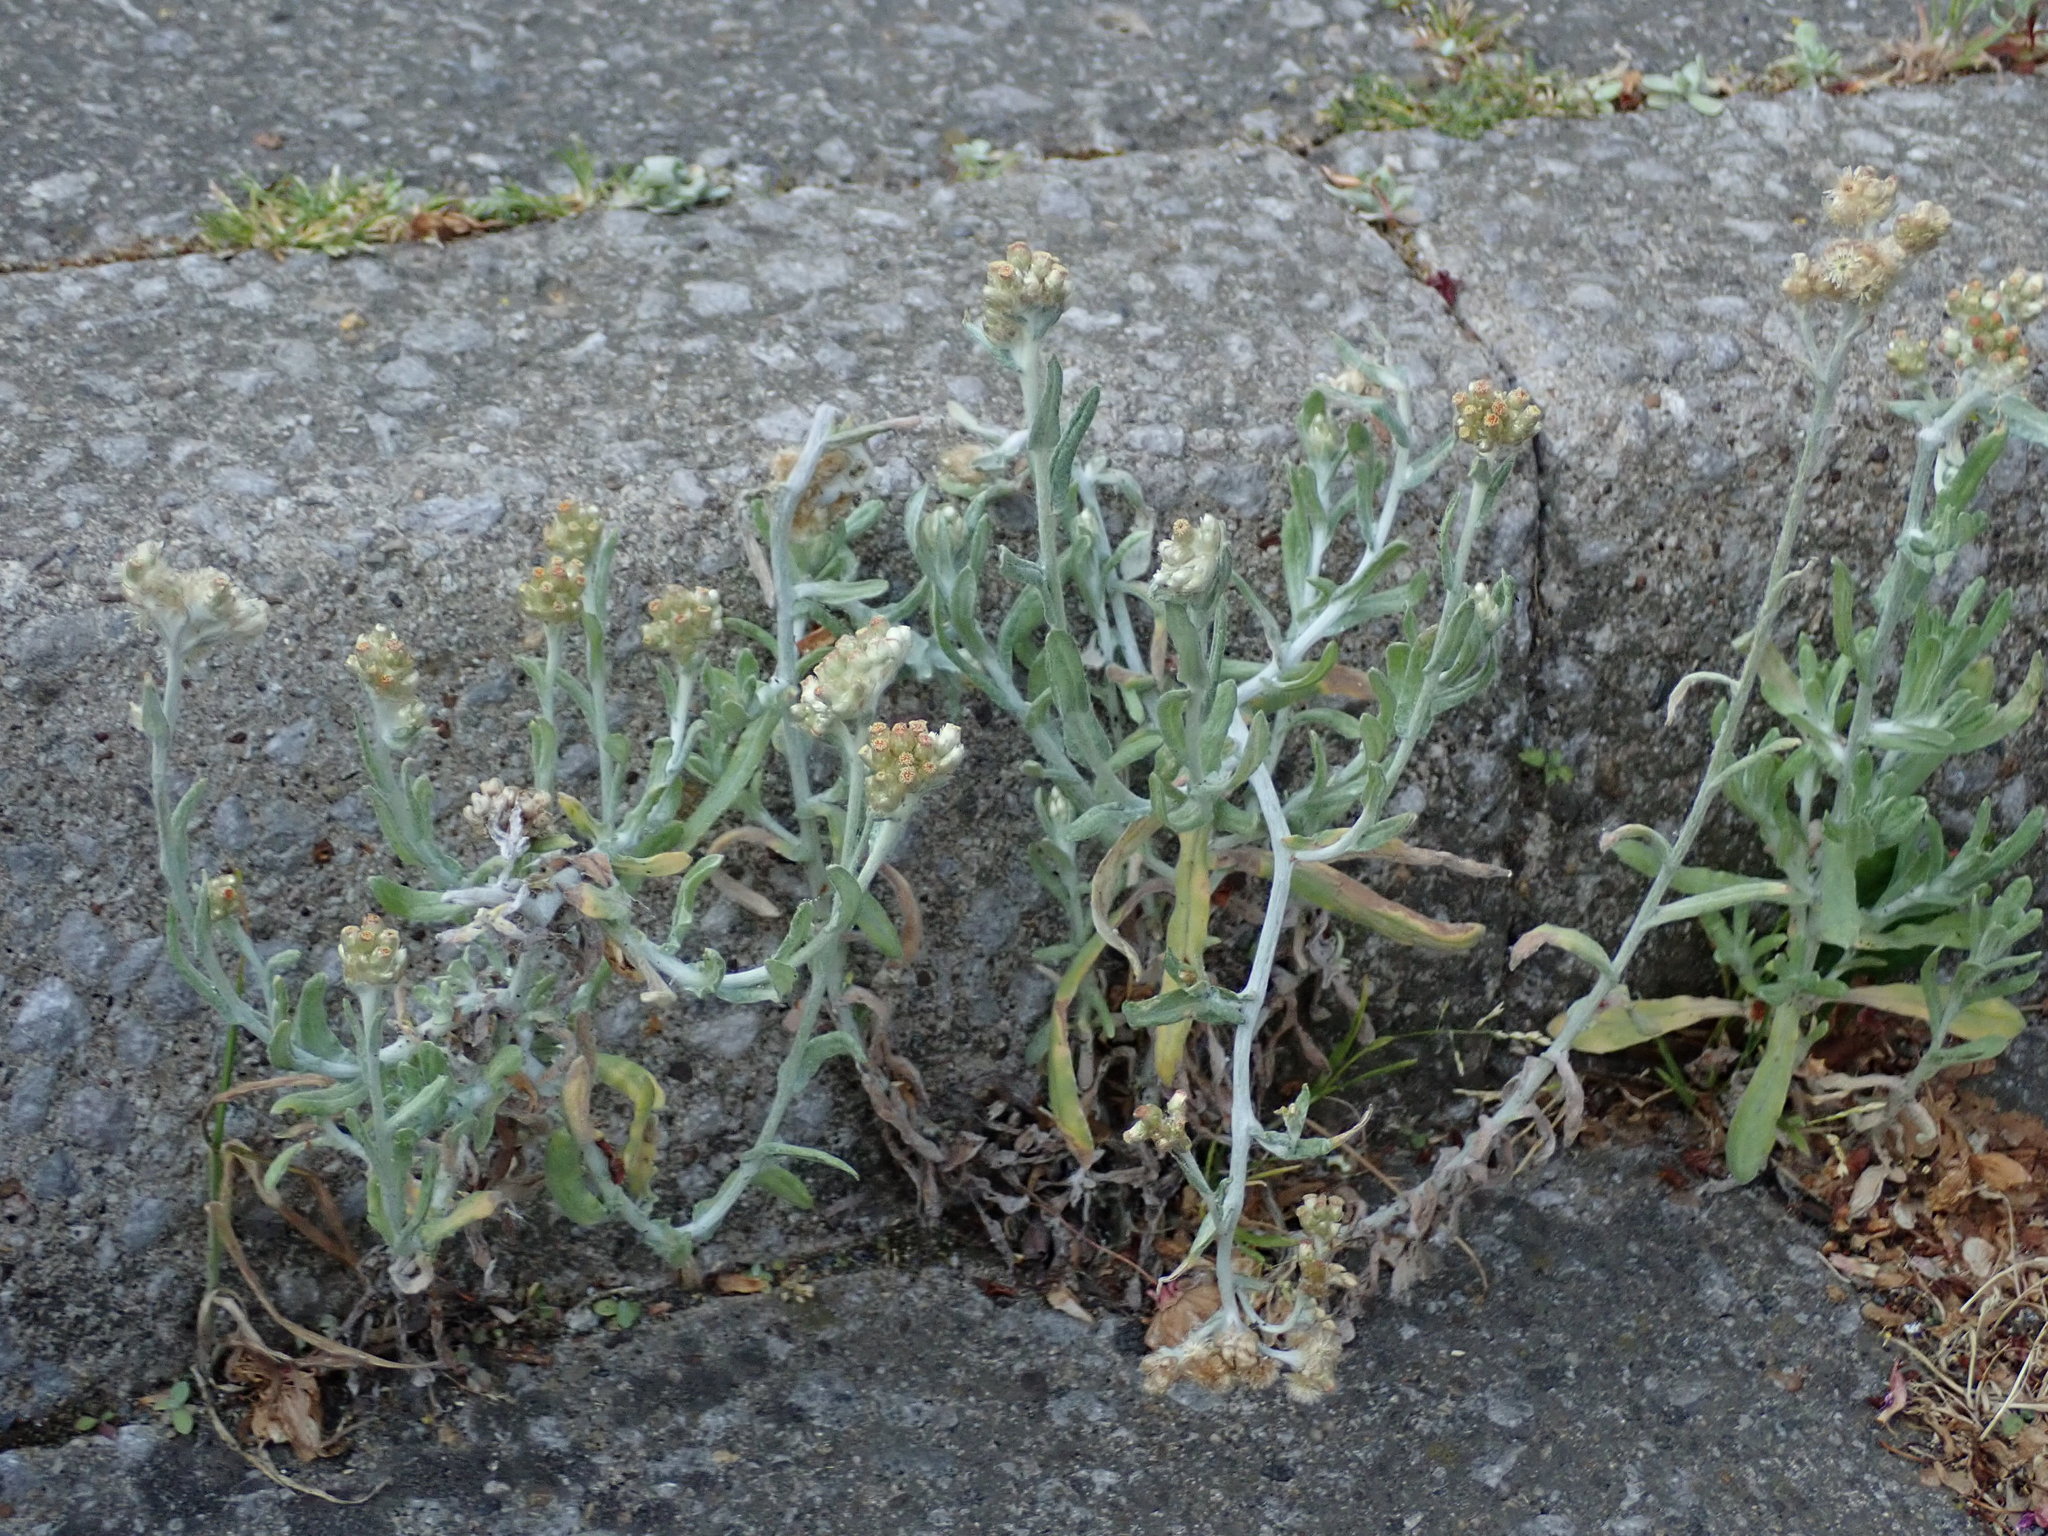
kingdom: Plantae
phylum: Tracheophyta
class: Magnoliopsida
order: Asterales
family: Asteraceae
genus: Helichrysum
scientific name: Helichrysum luteoalbum
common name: Daisy
